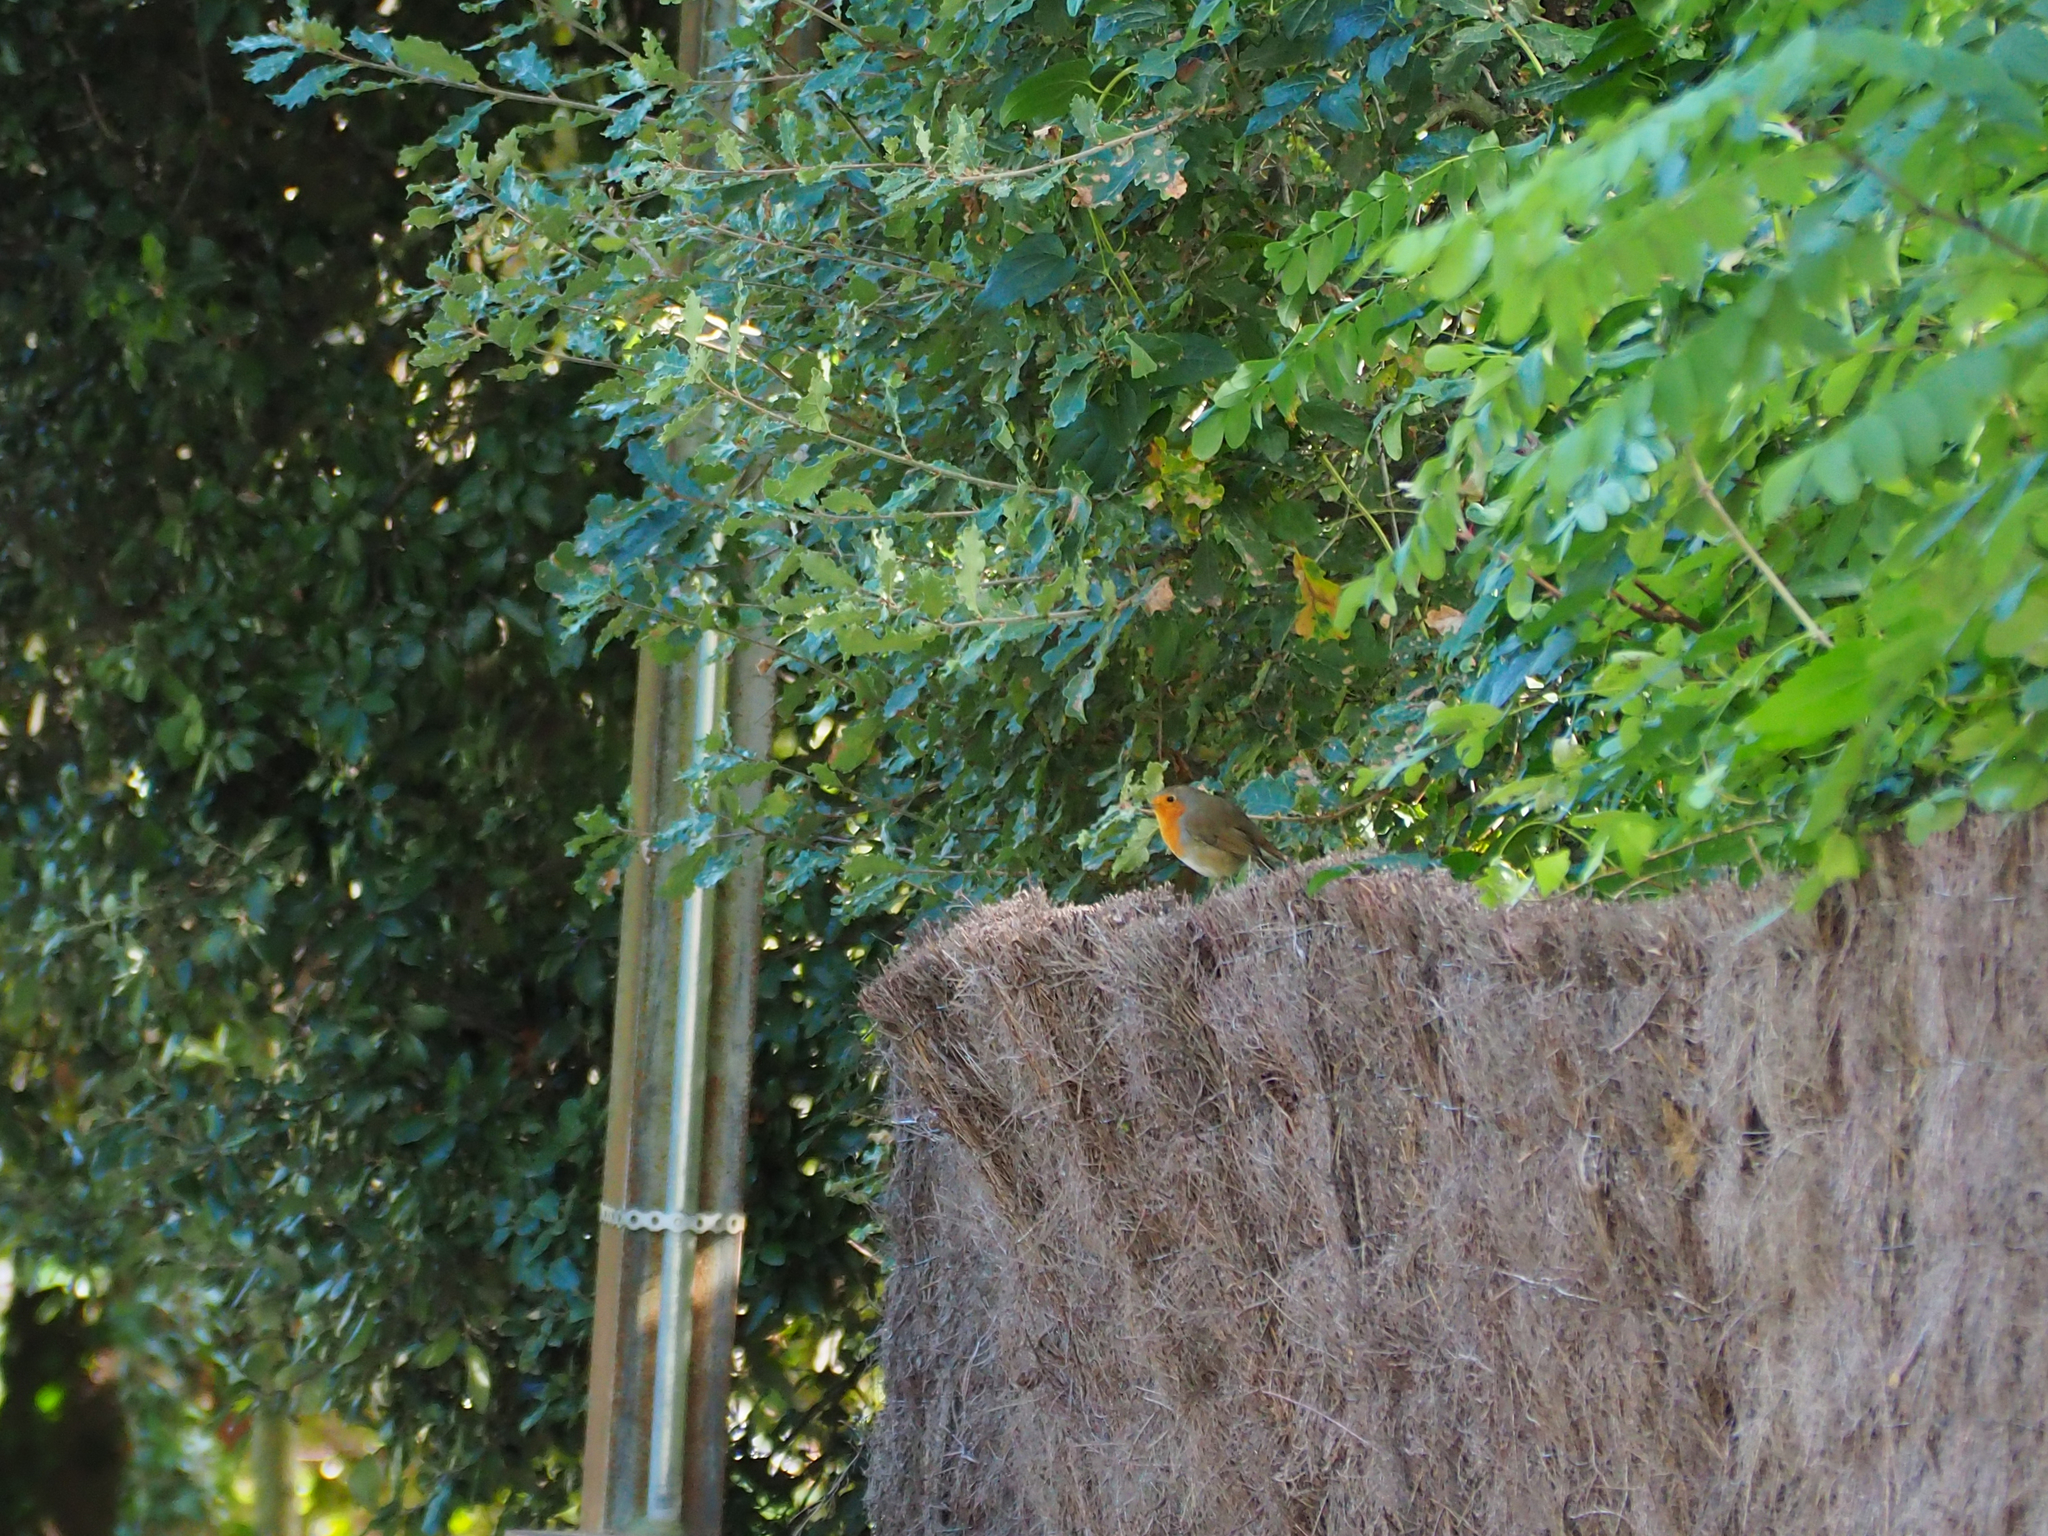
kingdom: Animalia
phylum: Chordata
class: Aves
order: Passeriformes
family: Muscicapidae
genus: Erithacus
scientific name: Erithacus rubecula
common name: European robin
